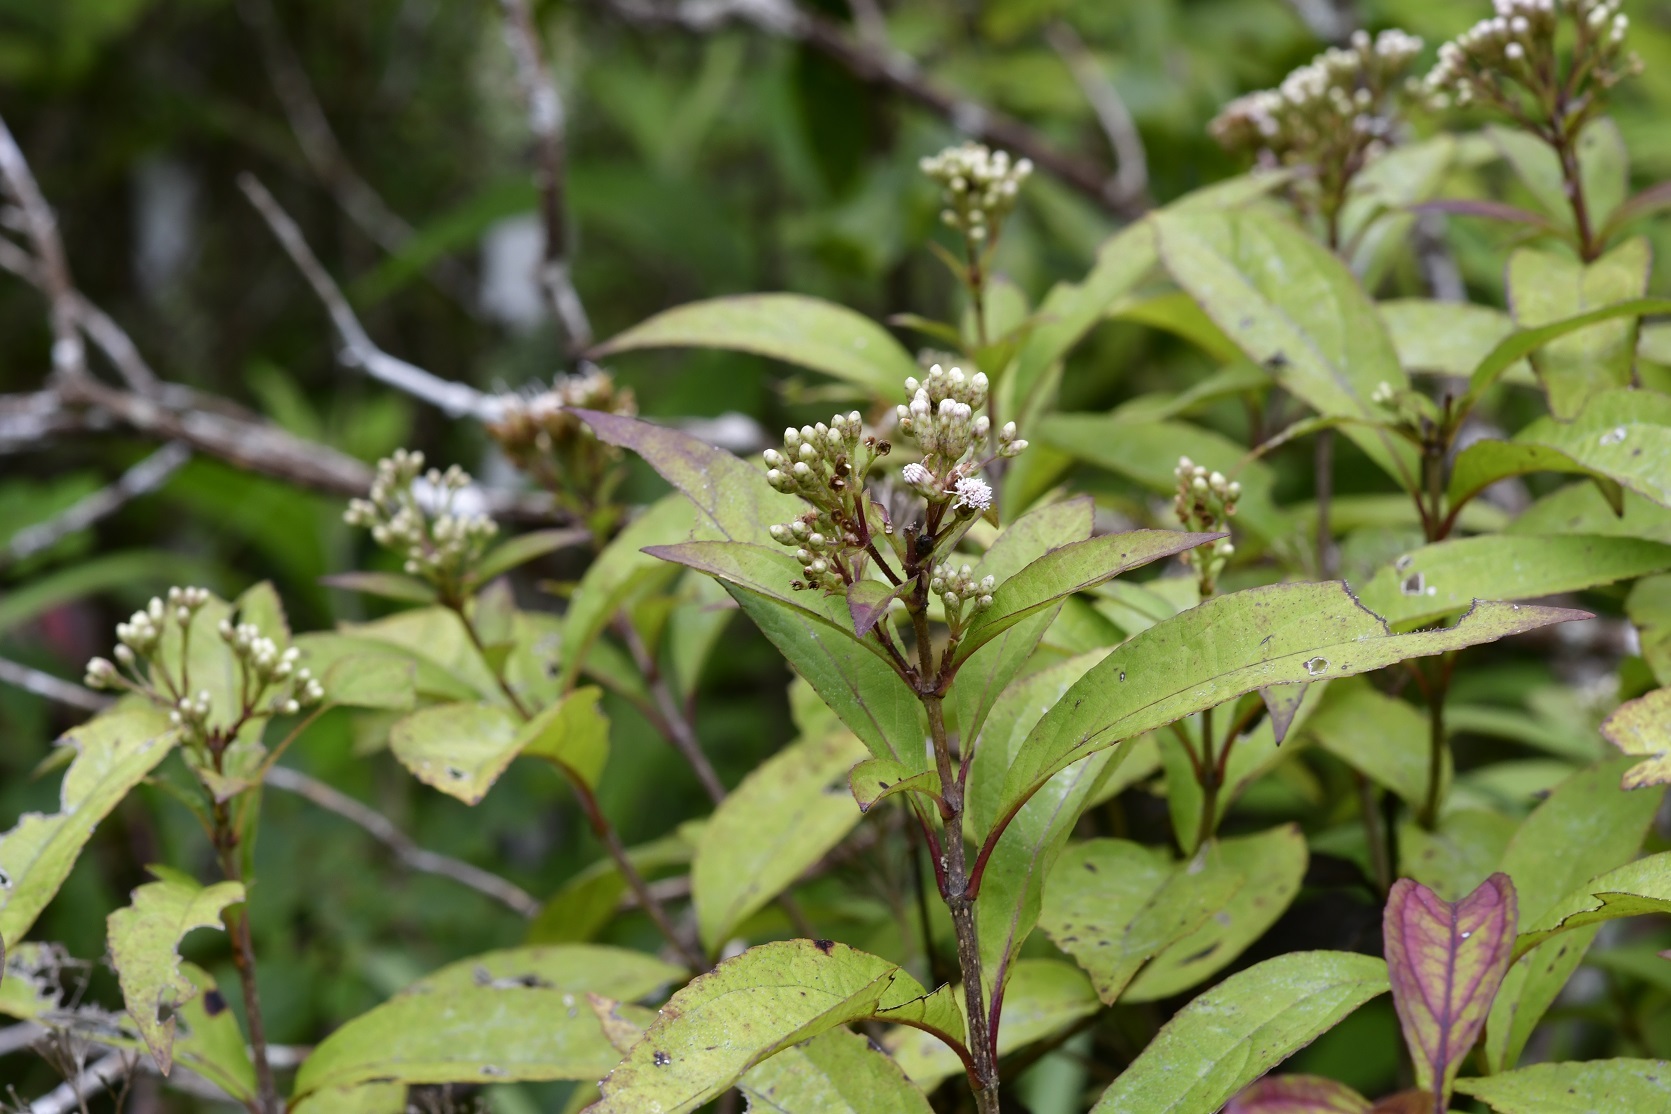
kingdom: Plantae
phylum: Tracheophyta
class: Magnoliopsida
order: Asterales
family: Asteraceae
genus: Chromolaena
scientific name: Chromolaena quercetorum
